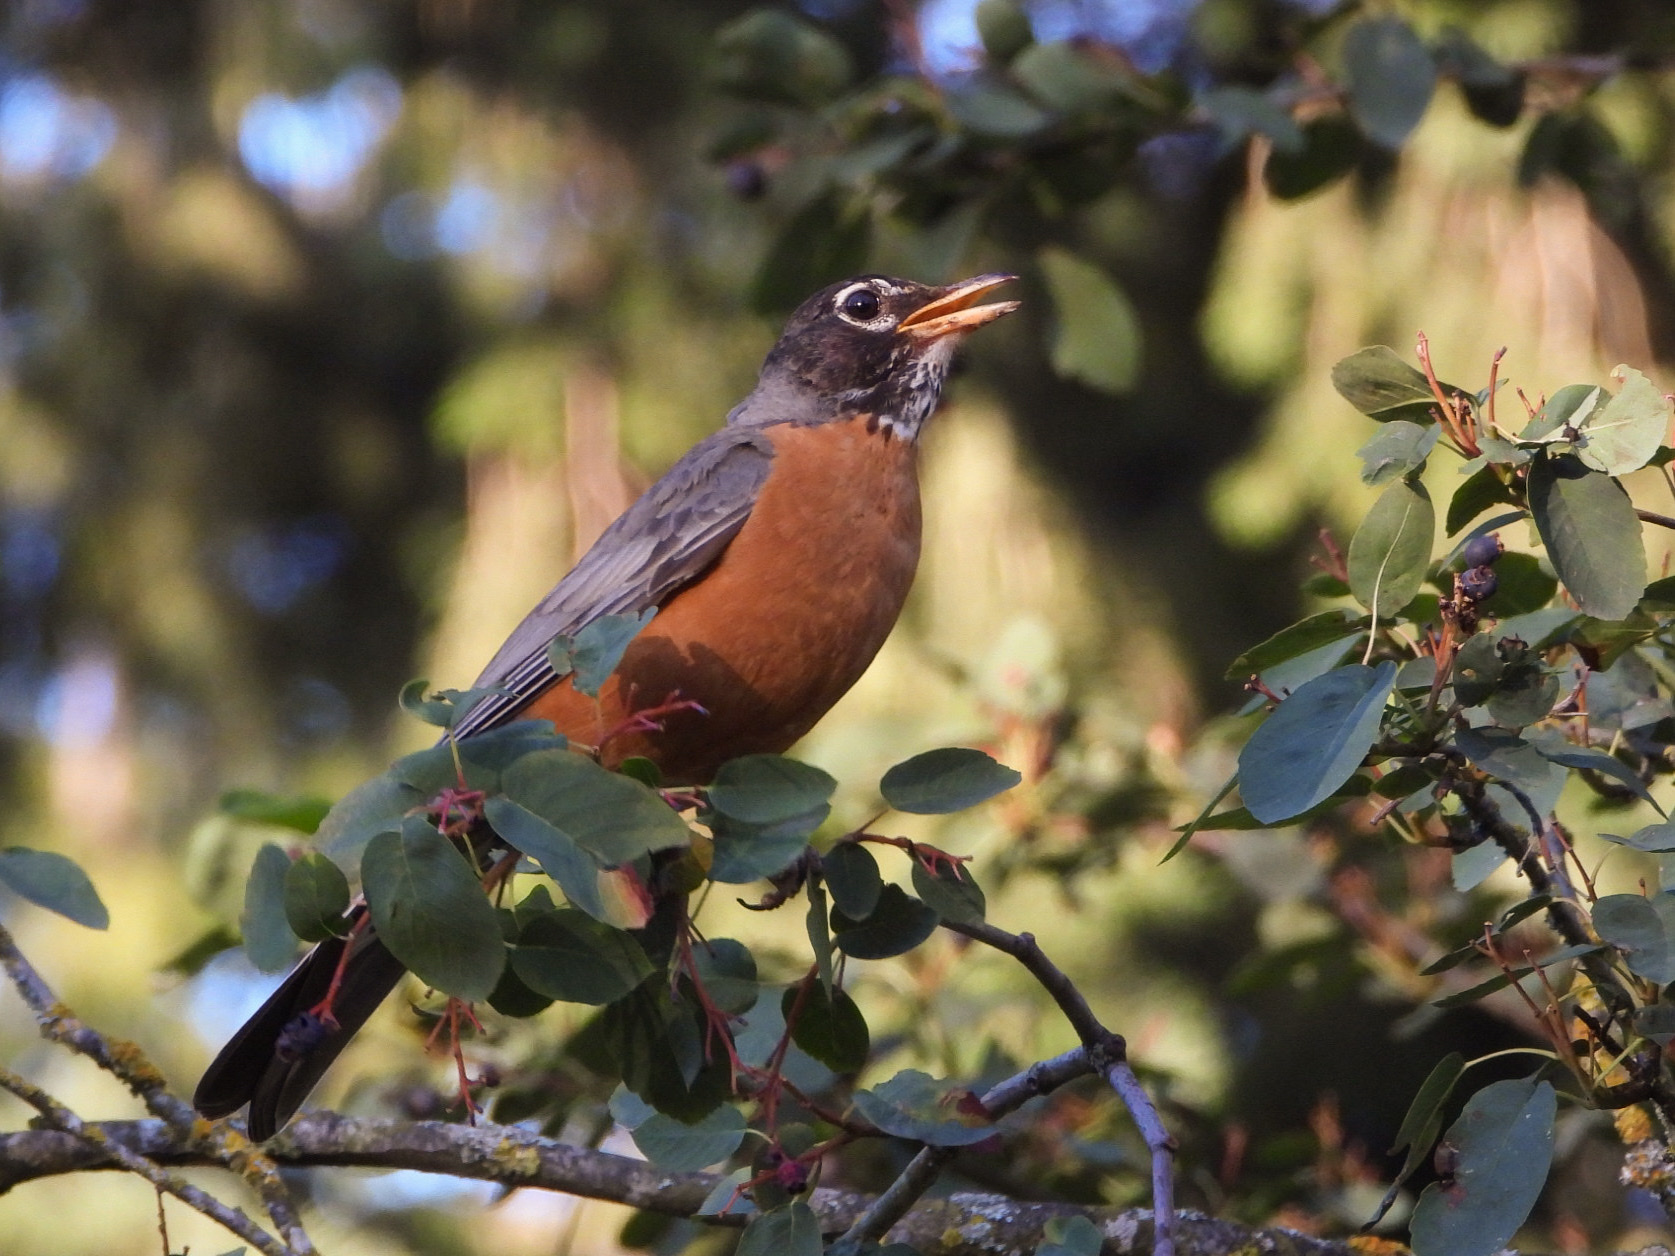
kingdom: Animalia
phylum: Chordata
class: Aves
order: Passeriformes
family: Turdidae
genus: Turdus
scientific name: Turdus migratorius
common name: American robin
